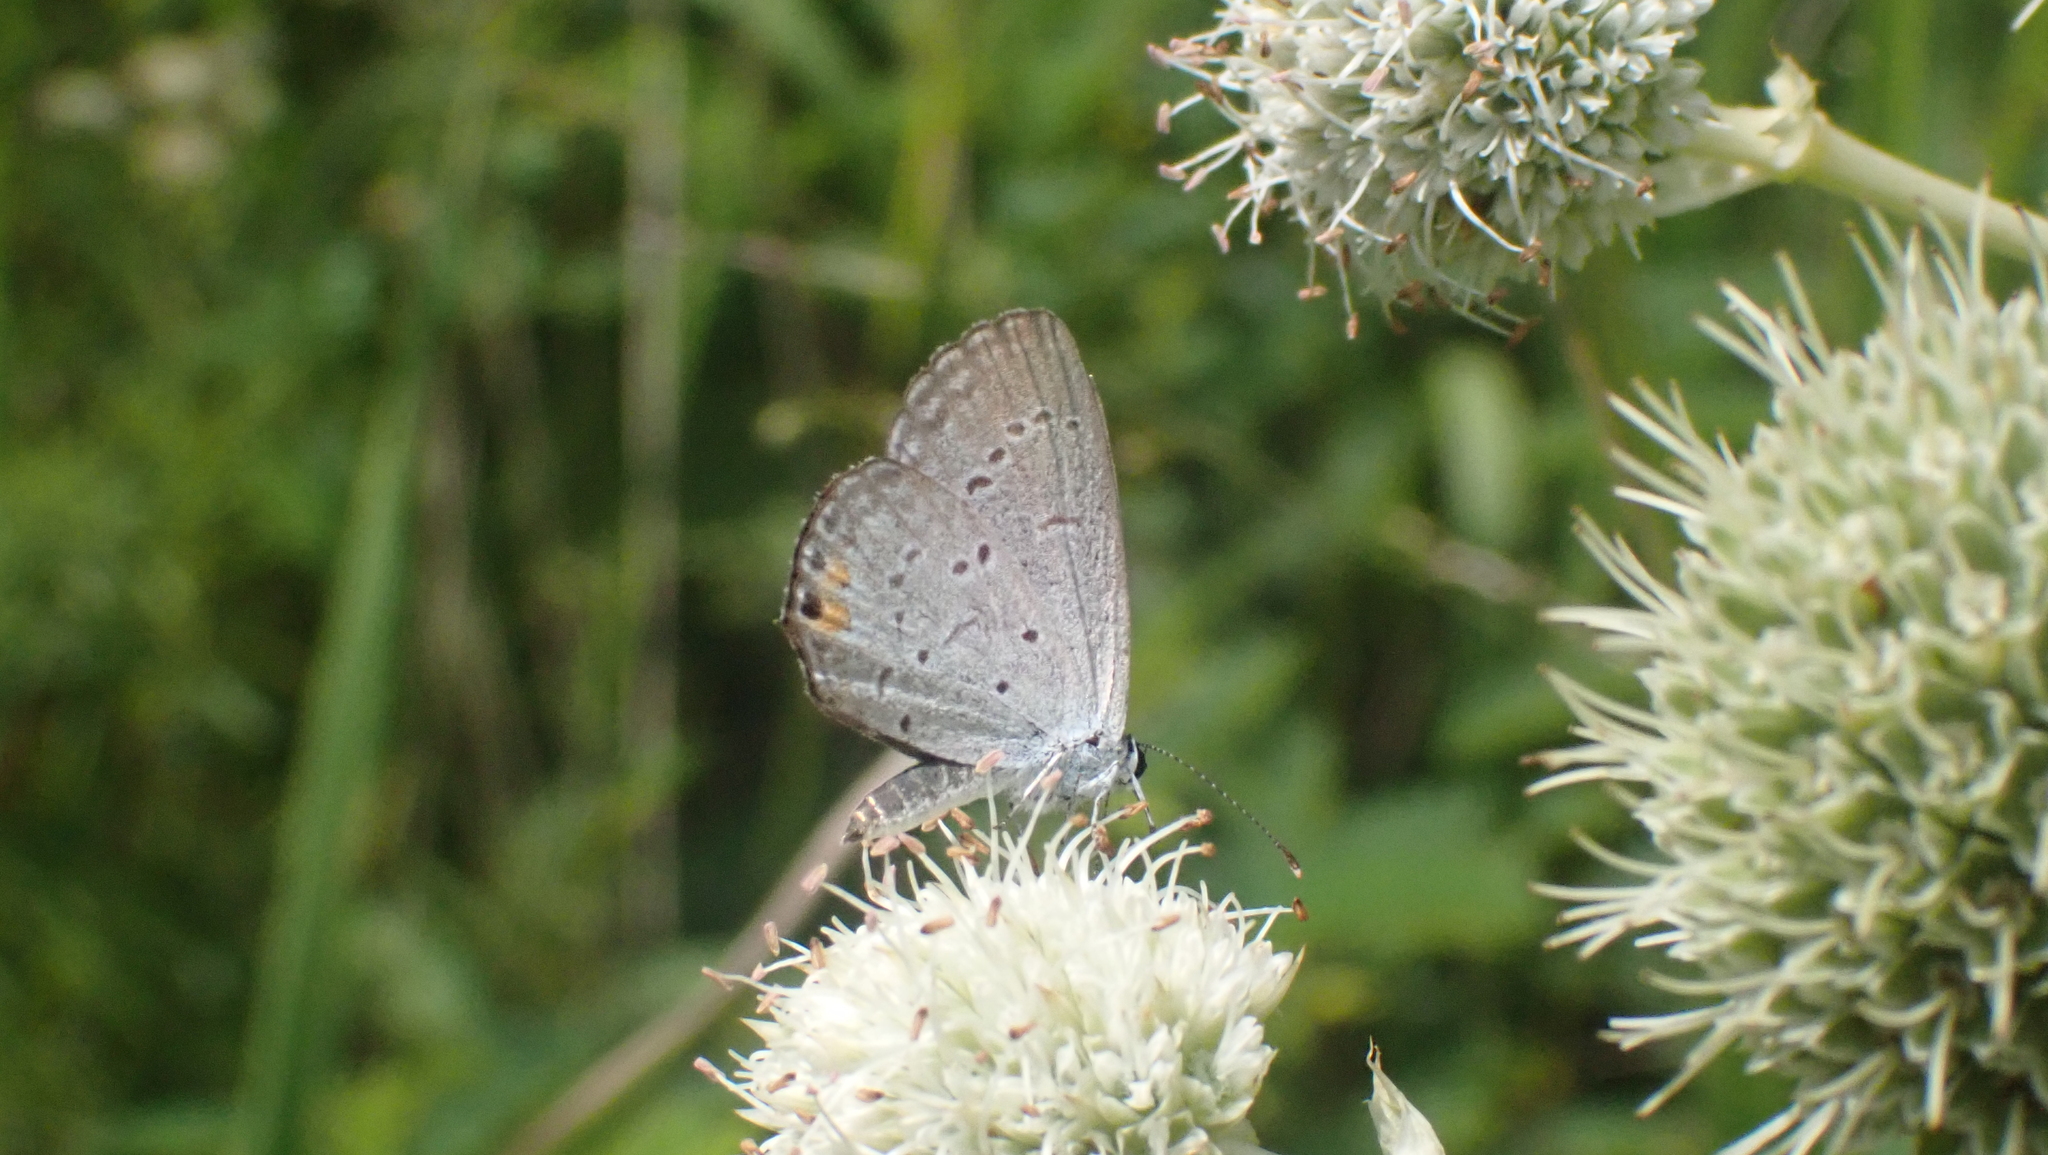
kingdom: Animalia
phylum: Arthropoda
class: Insecta
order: Lepidoptera
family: Lycaenidae
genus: Elkalyce
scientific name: Elkalyce comyntas
